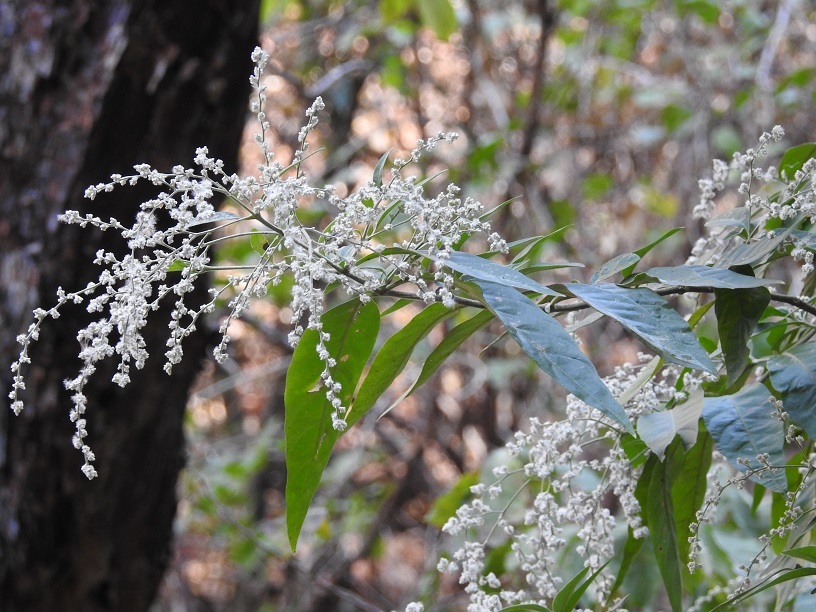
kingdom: Plantae
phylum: Tracheophyta
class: Magnoliopsida
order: Caryophyllales
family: Amaranthaceae
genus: Iresine
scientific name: Iresine arbuscula
